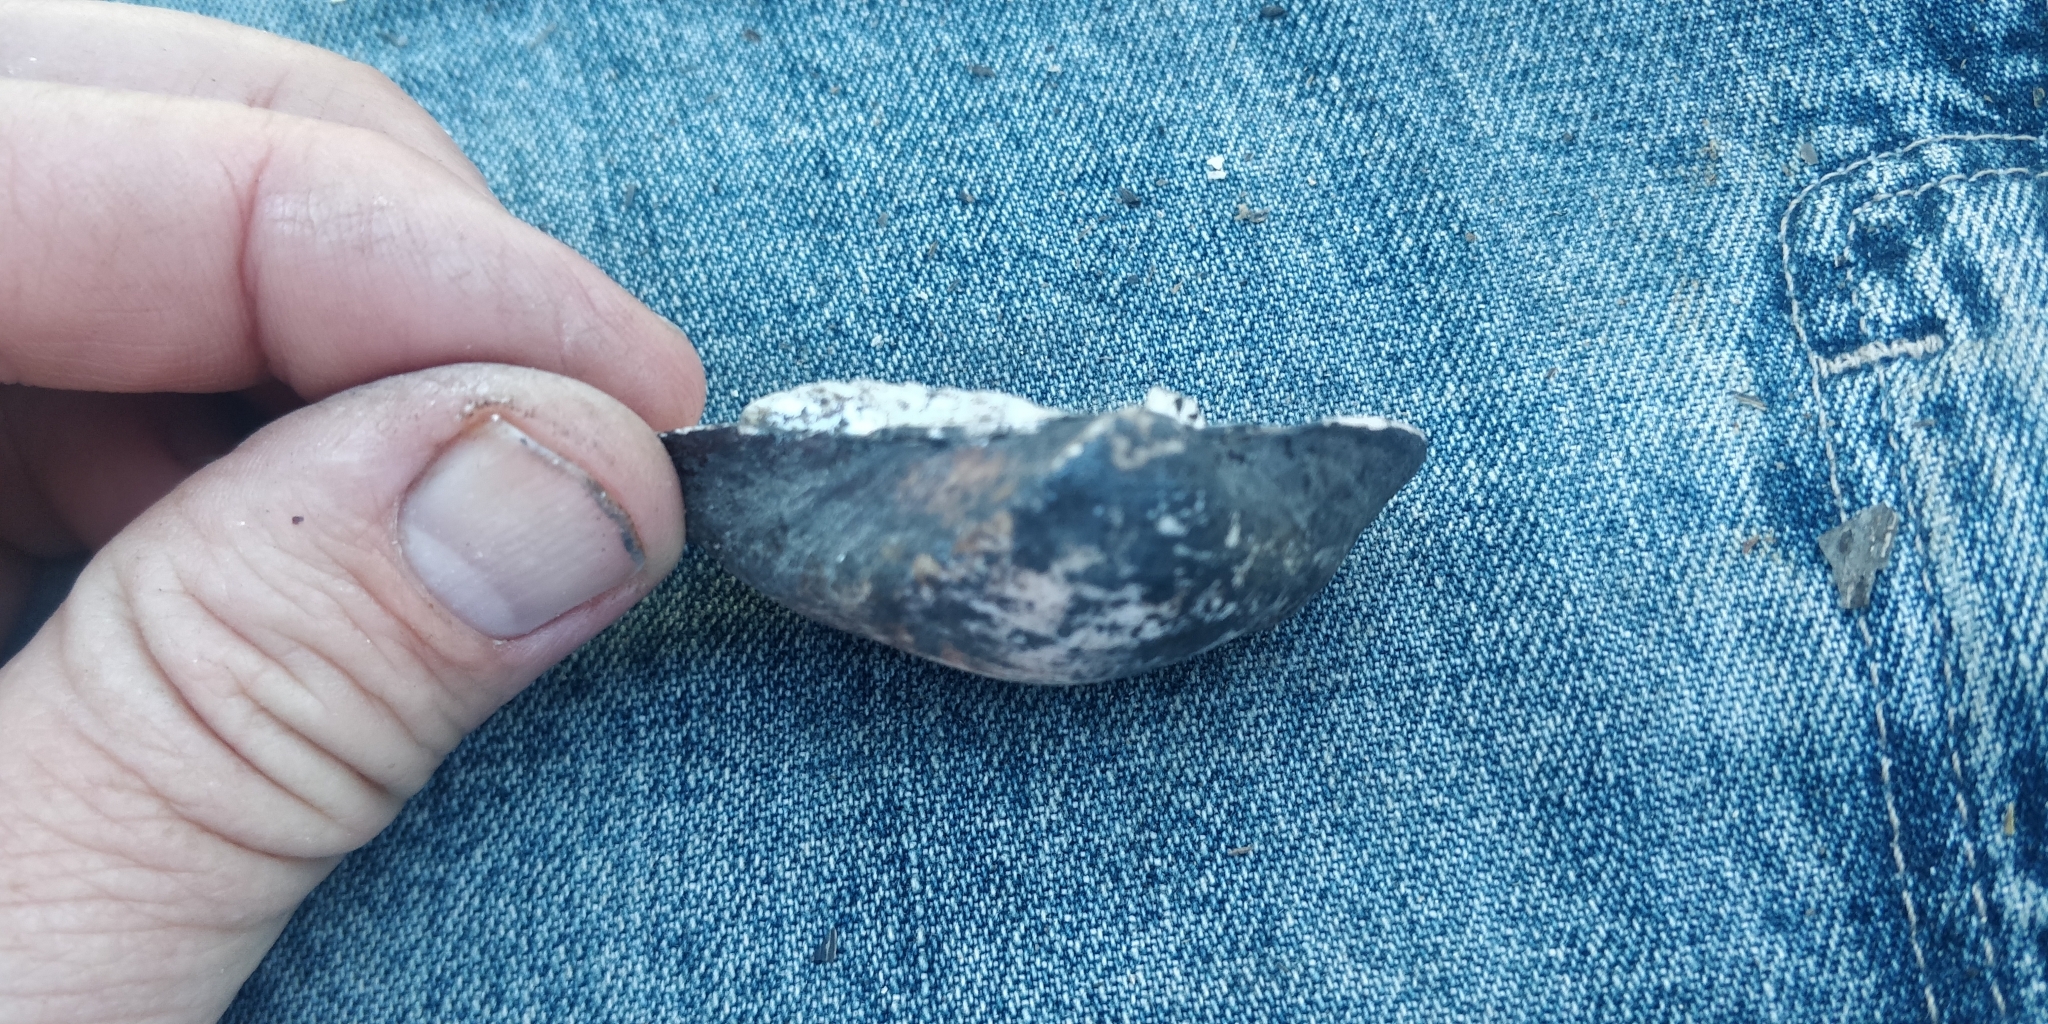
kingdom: Animalia
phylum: Mollusca
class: Bivalvia
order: Unionida
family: Unionidae
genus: Truncilla
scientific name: Truncilla truncata
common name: Deertoe
